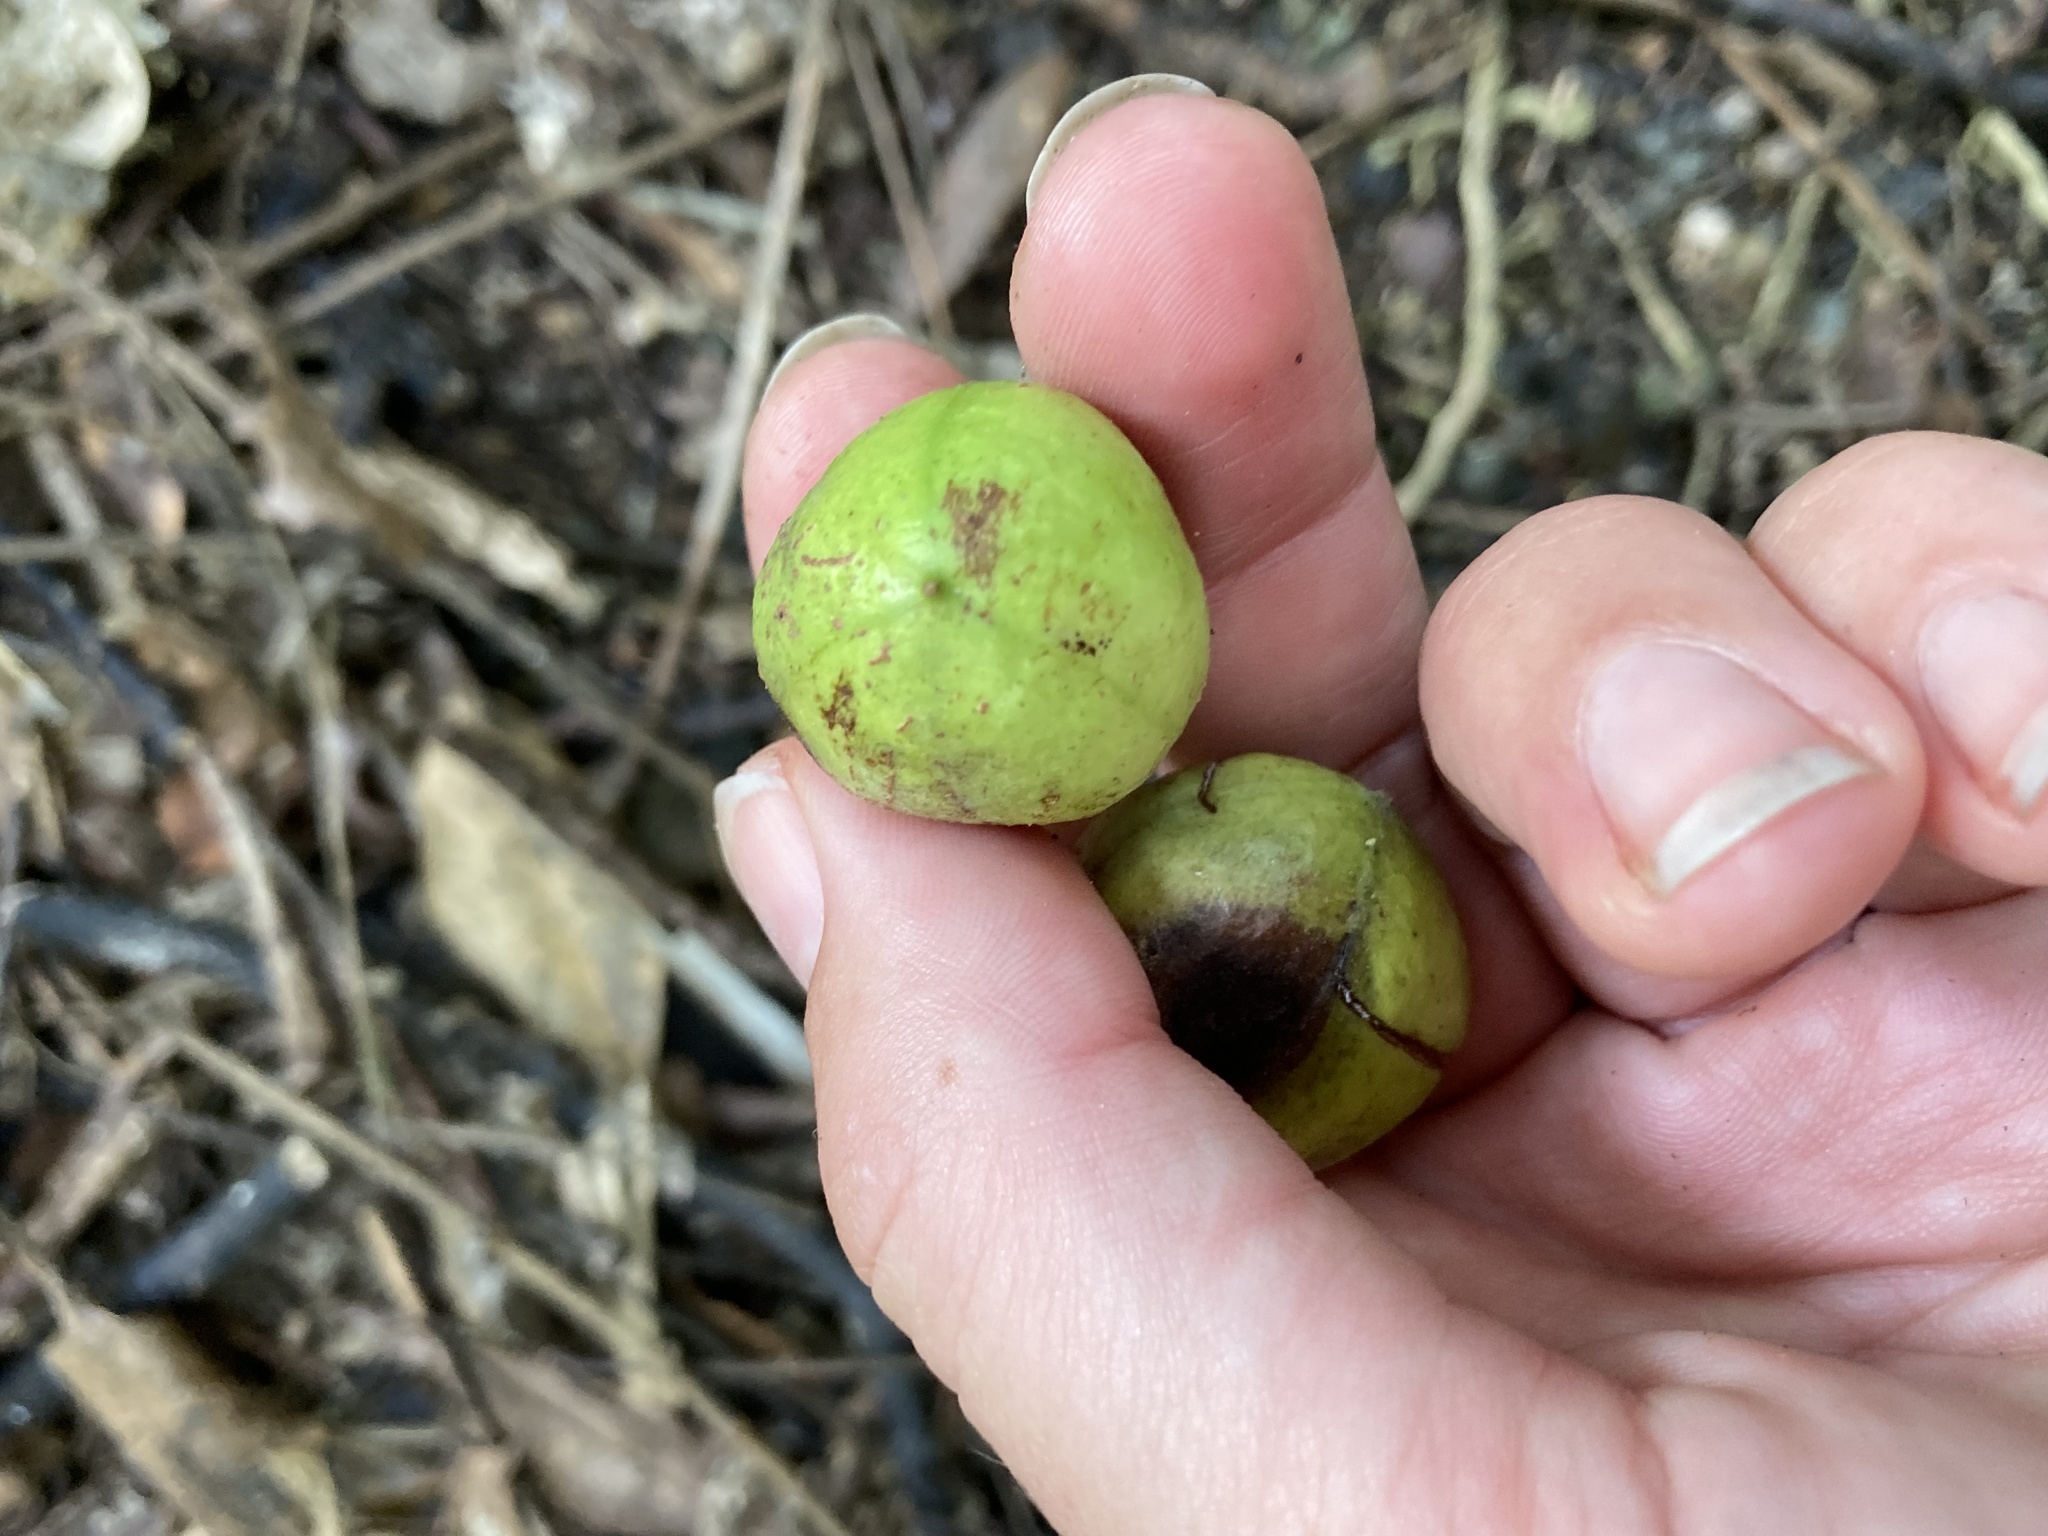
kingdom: Plantae
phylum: Tracheophyta
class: Magnoliopsida
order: Sapindales
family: Meliaceae
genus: Didymocheton
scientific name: Didymocheton spectabilis
